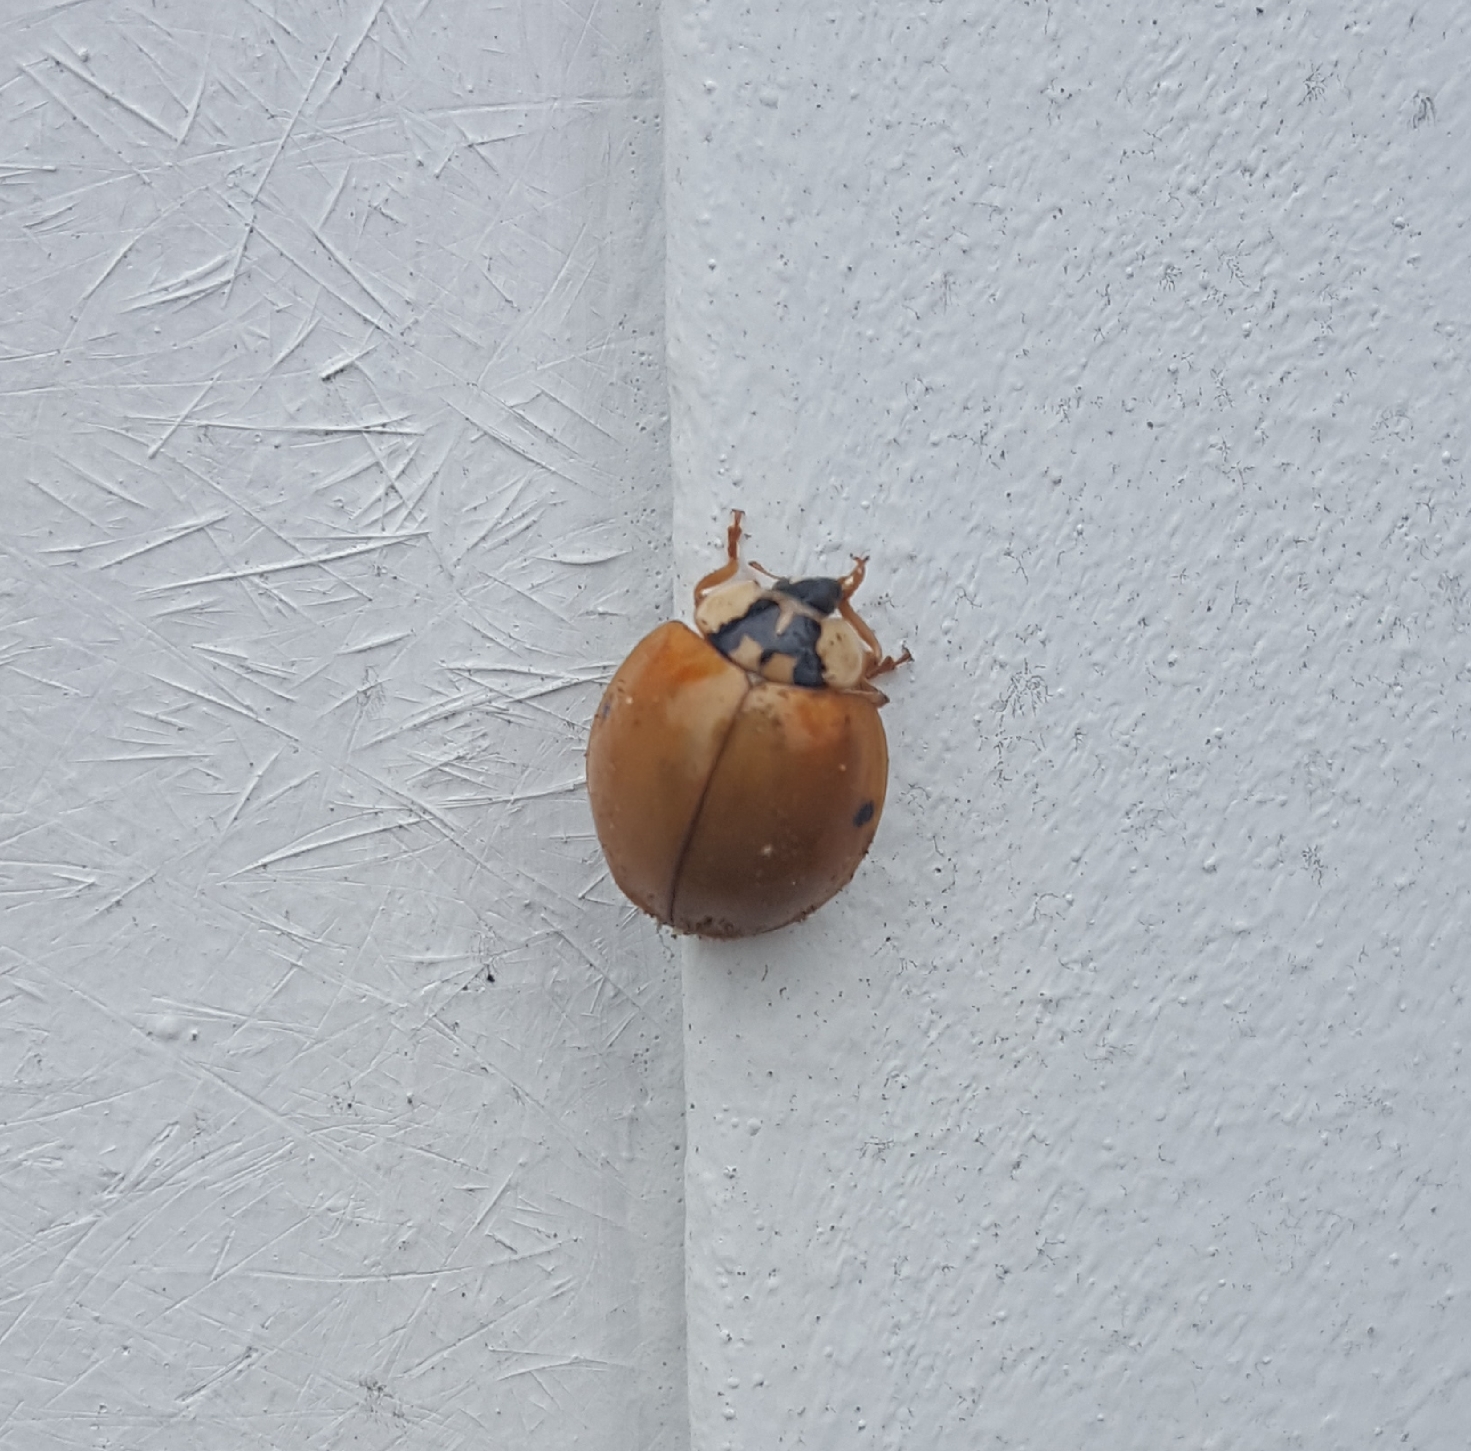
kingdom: Animalia
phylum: Arthropoda
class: Insecta
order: Coleoptera
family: Coccinellidae
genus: Harmonia
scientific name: Harmonia axyridis
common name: Harlequin ladybird
